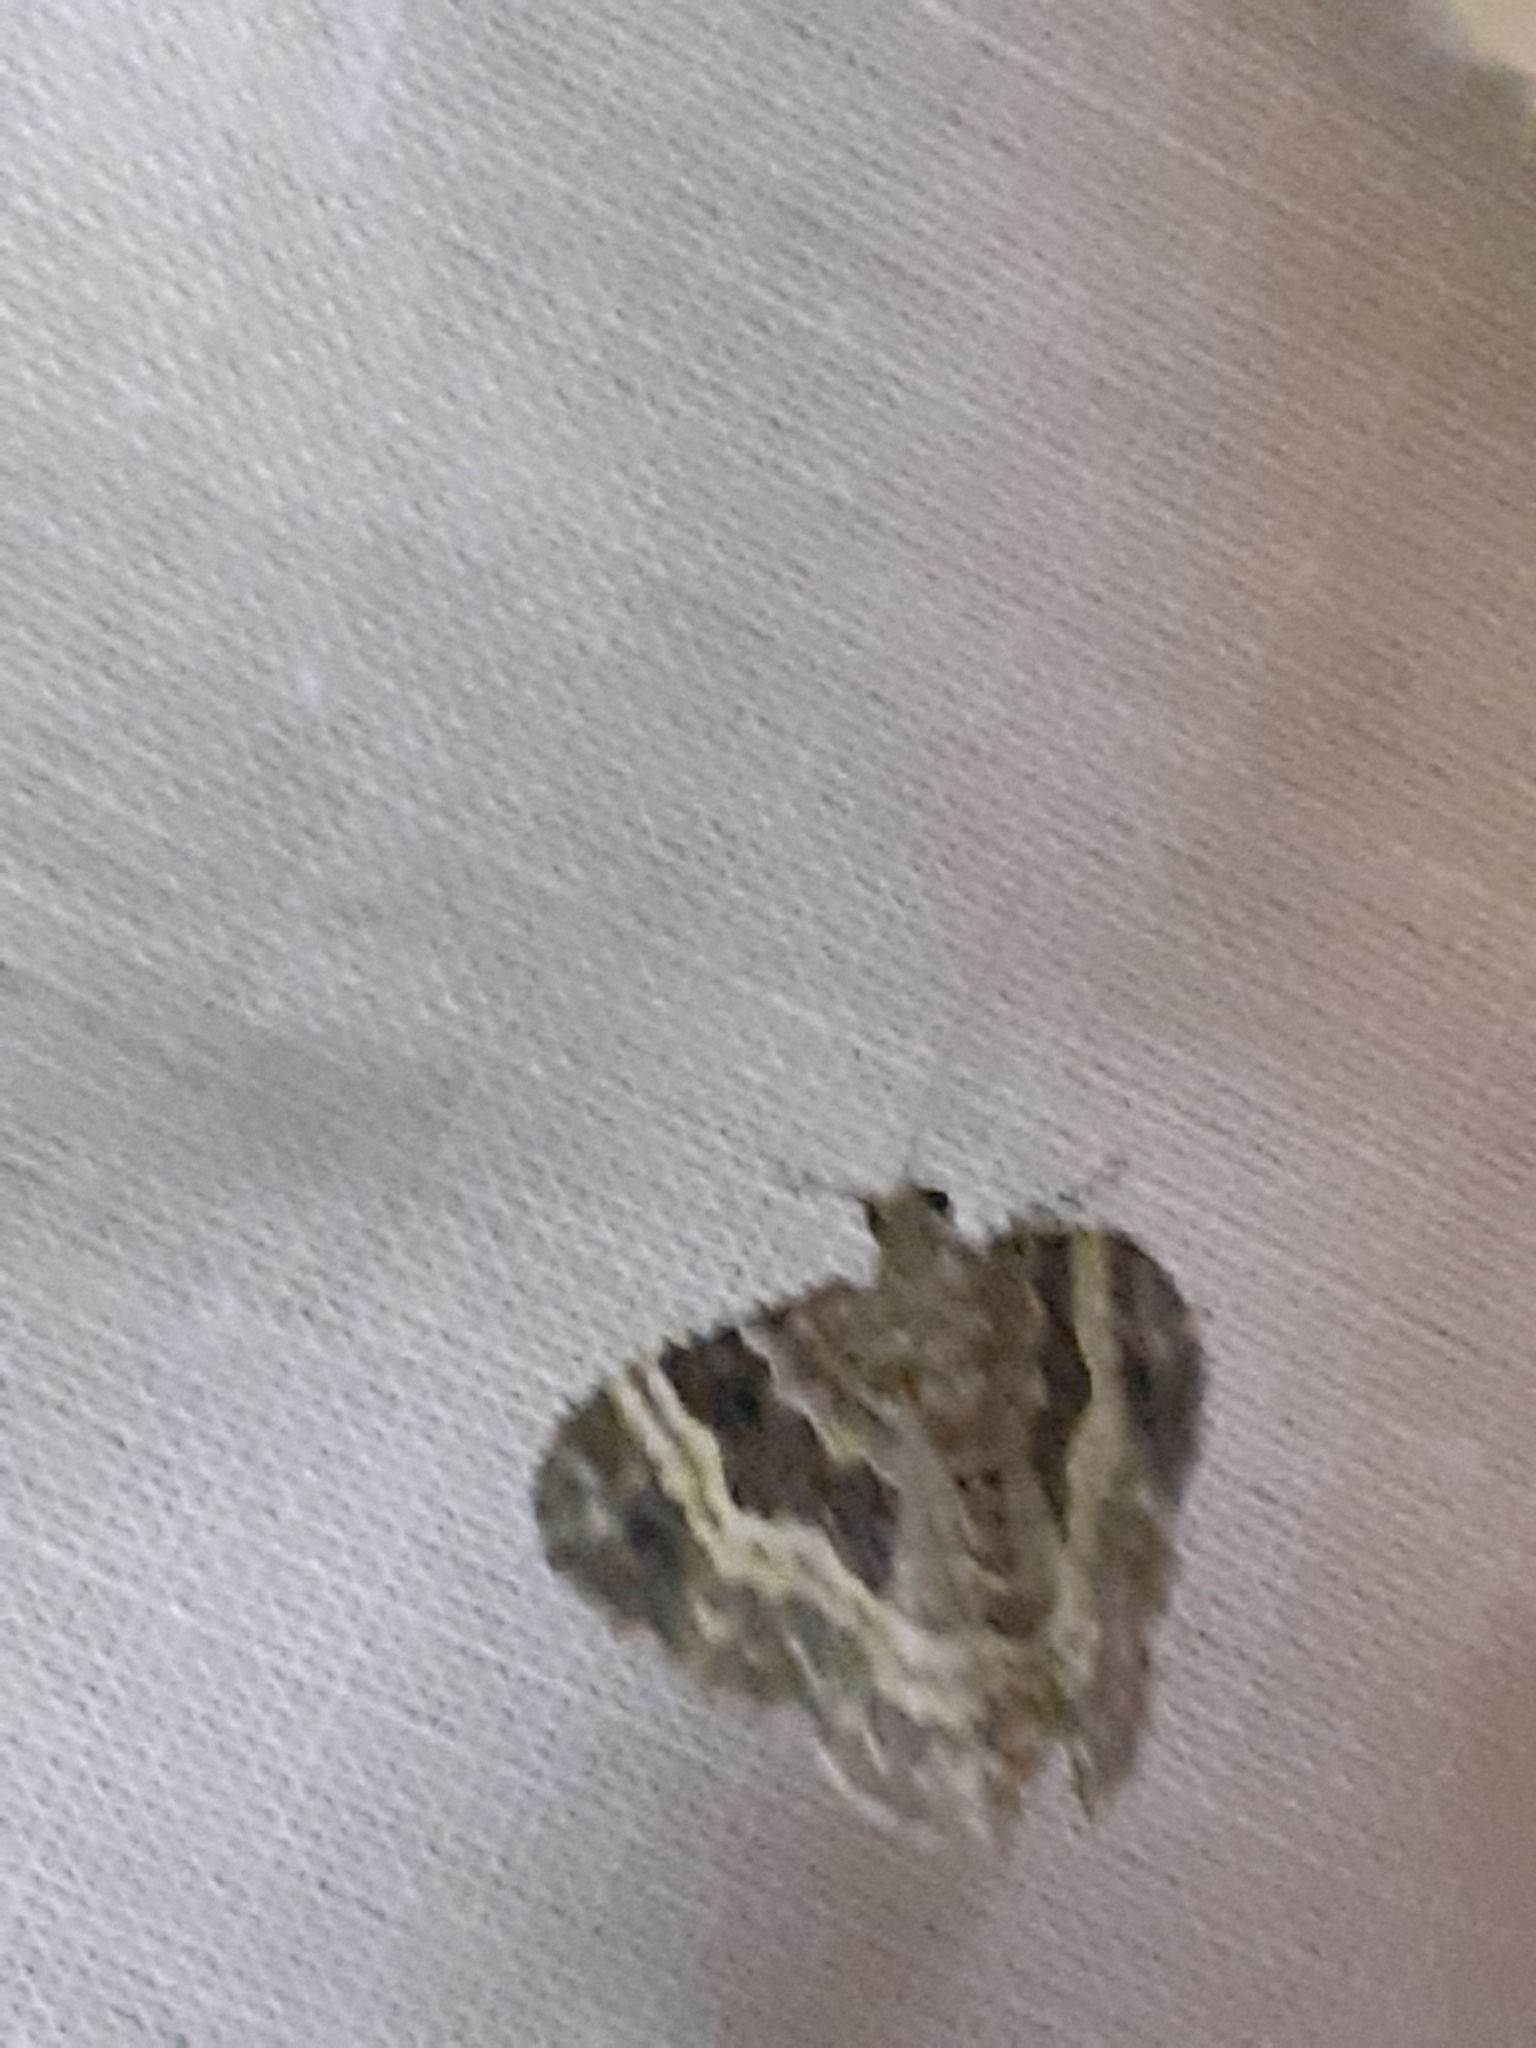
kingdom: Animalia
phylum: Arthropoda
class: Insecta
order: Lepidoptera
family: Geometridae
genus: Epirrhoe
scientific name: Epirrhoe alternata
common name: Common carpet
